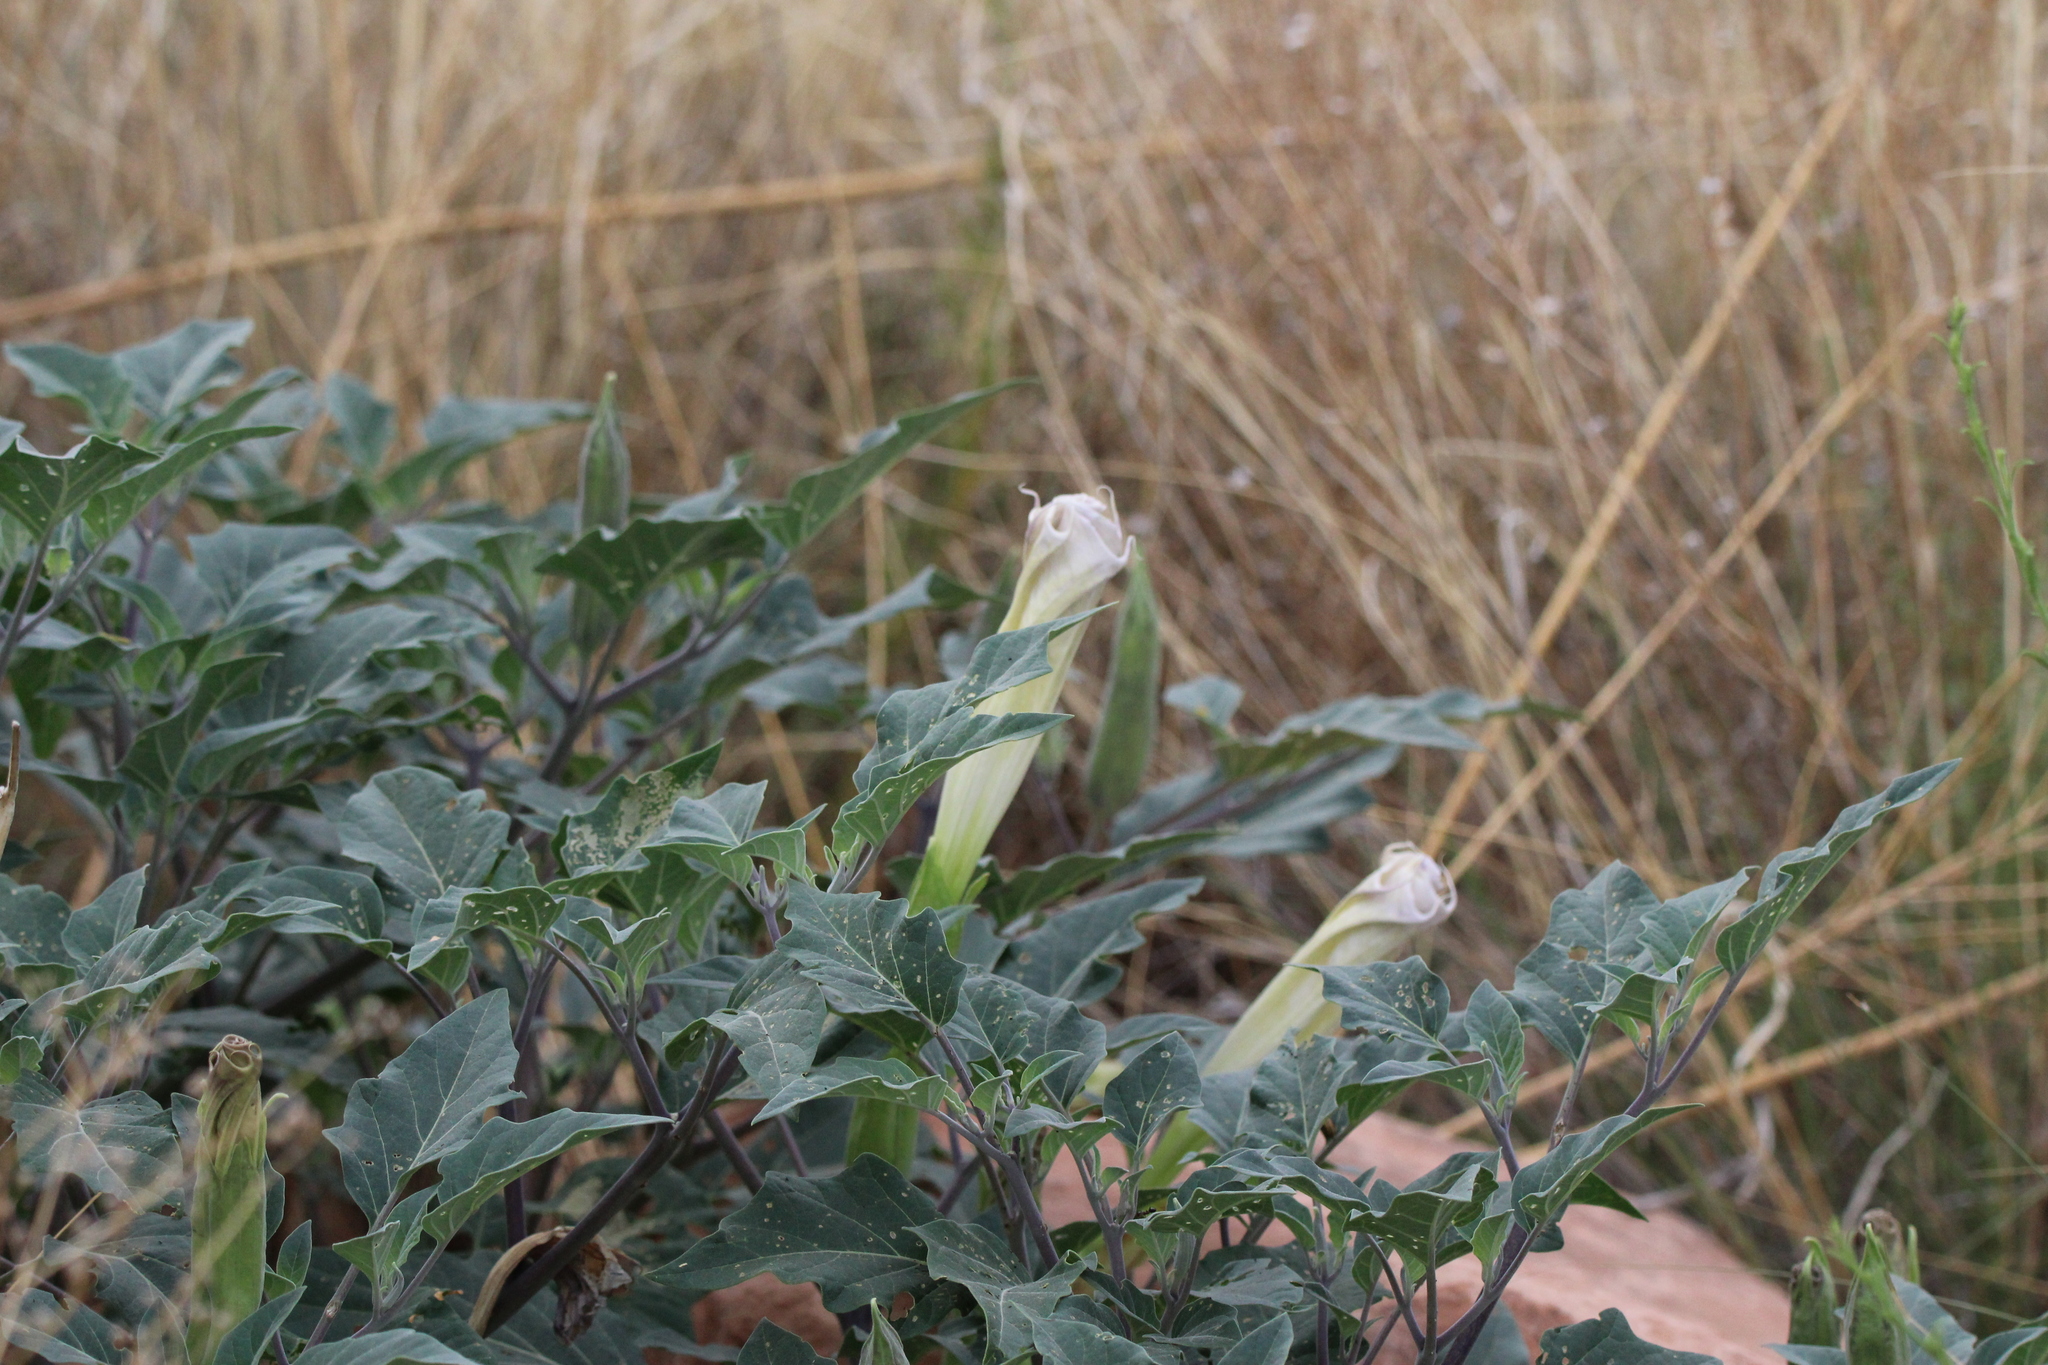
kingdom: Plantae
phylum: Tracheophyta
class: Magnoliopsida
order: Solanales
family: Solanaceae
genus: Datura
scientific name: Datura wrightii
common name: Sacred thorn-apple
